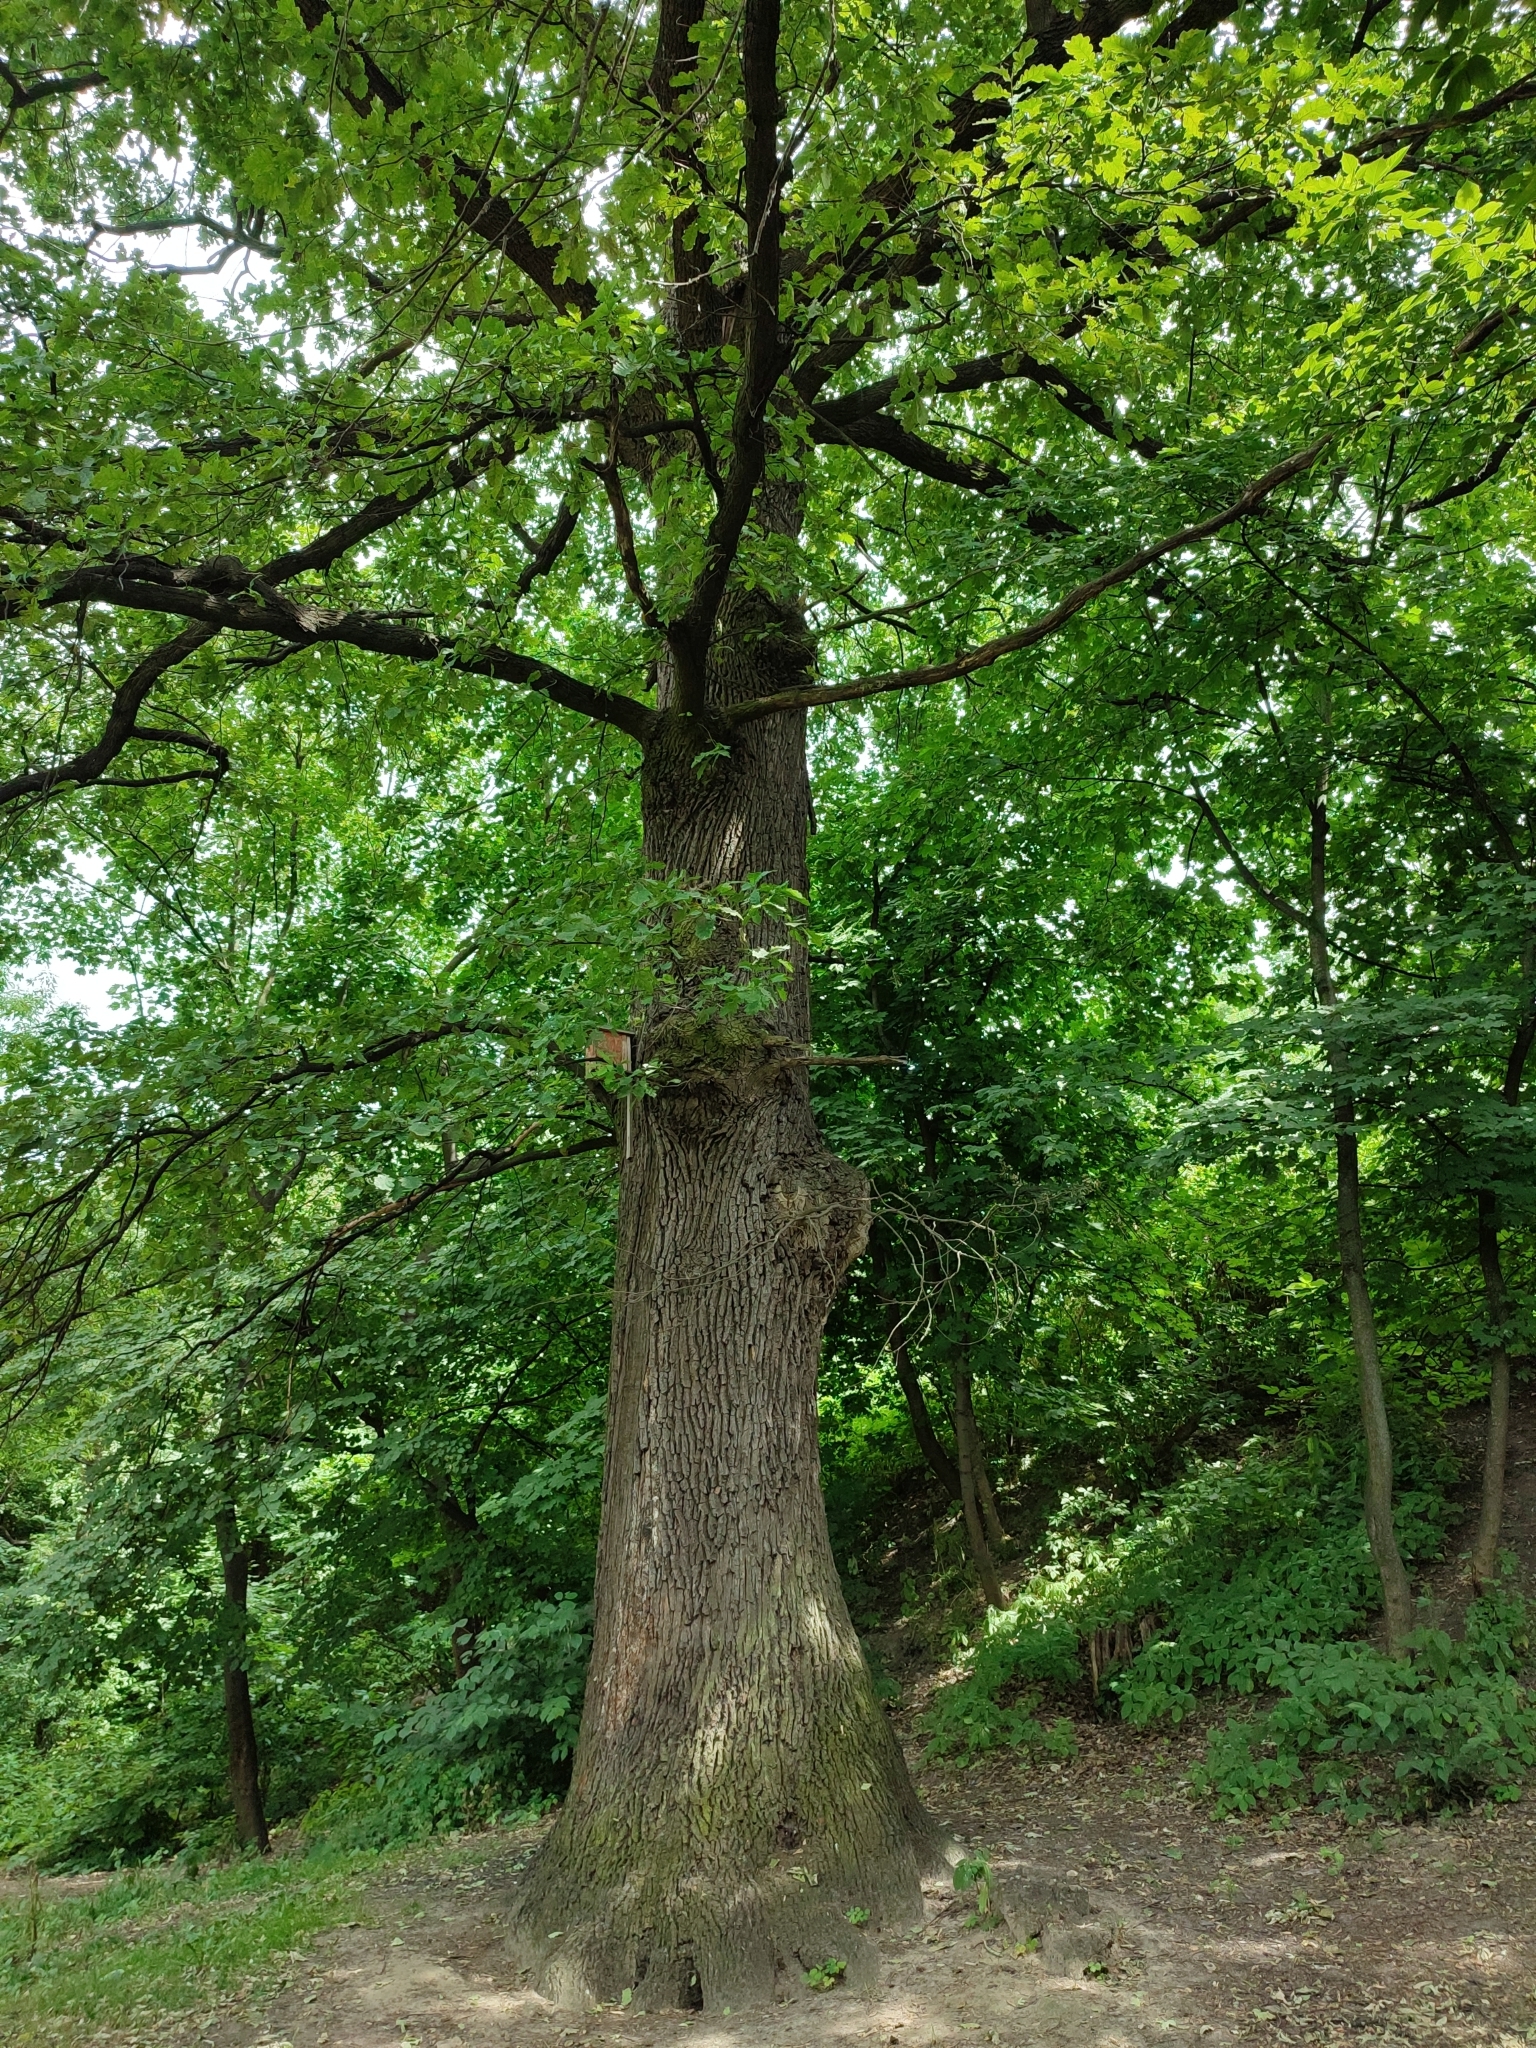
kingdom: Plantae
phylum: Tracheophyta
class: Magnoliopsida
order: Fagales
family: Fagaceae
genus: Quercus
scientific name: Quercus robur
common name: Pedunculate oak
